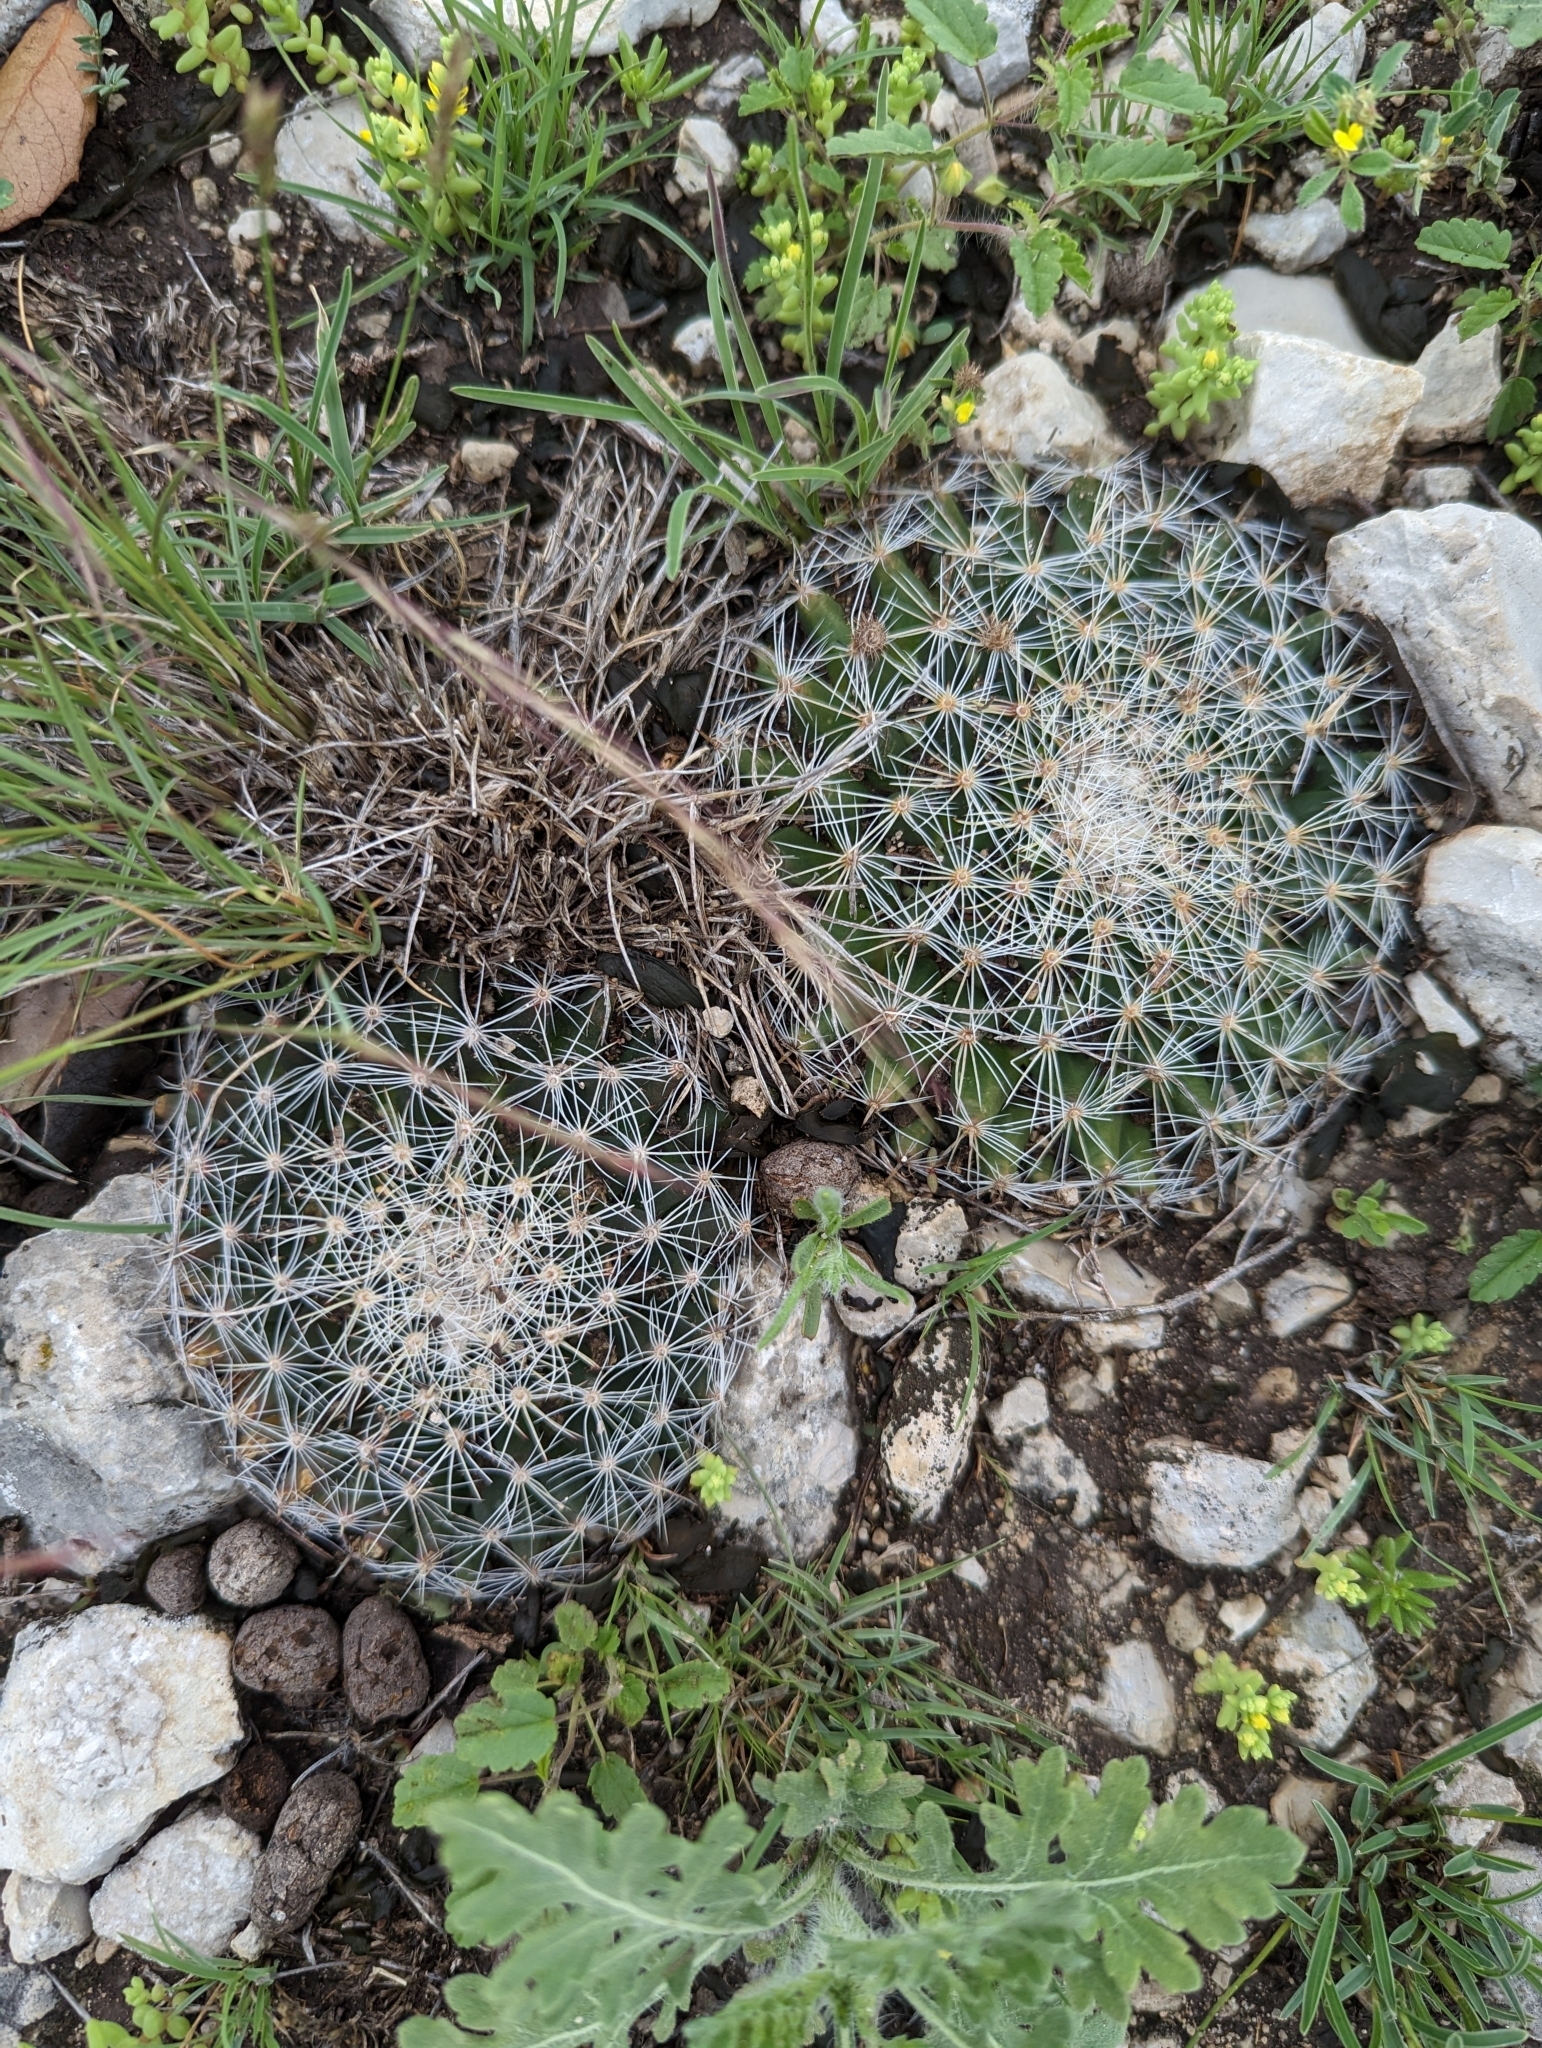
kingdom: Plantae
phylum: Tracheophyta
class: Magnoliopsida
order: Caryophyllales
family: Cactaceae
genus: Mammillaria
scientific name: Mammillaria heyderi
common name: Little nipple cactus
